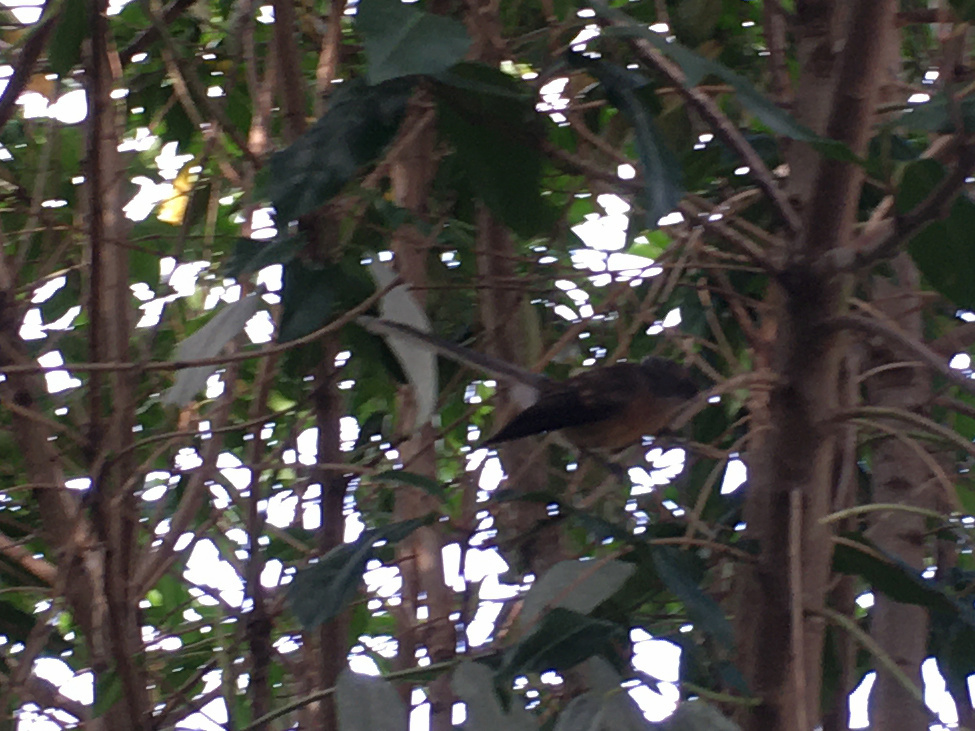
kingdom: Animalia
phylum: Chordata
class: Aves
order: Passeriformes
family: Rhipiduridae
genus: Rhipidura
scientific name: Rhipidura fuliginosa
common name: New zealand fantail
